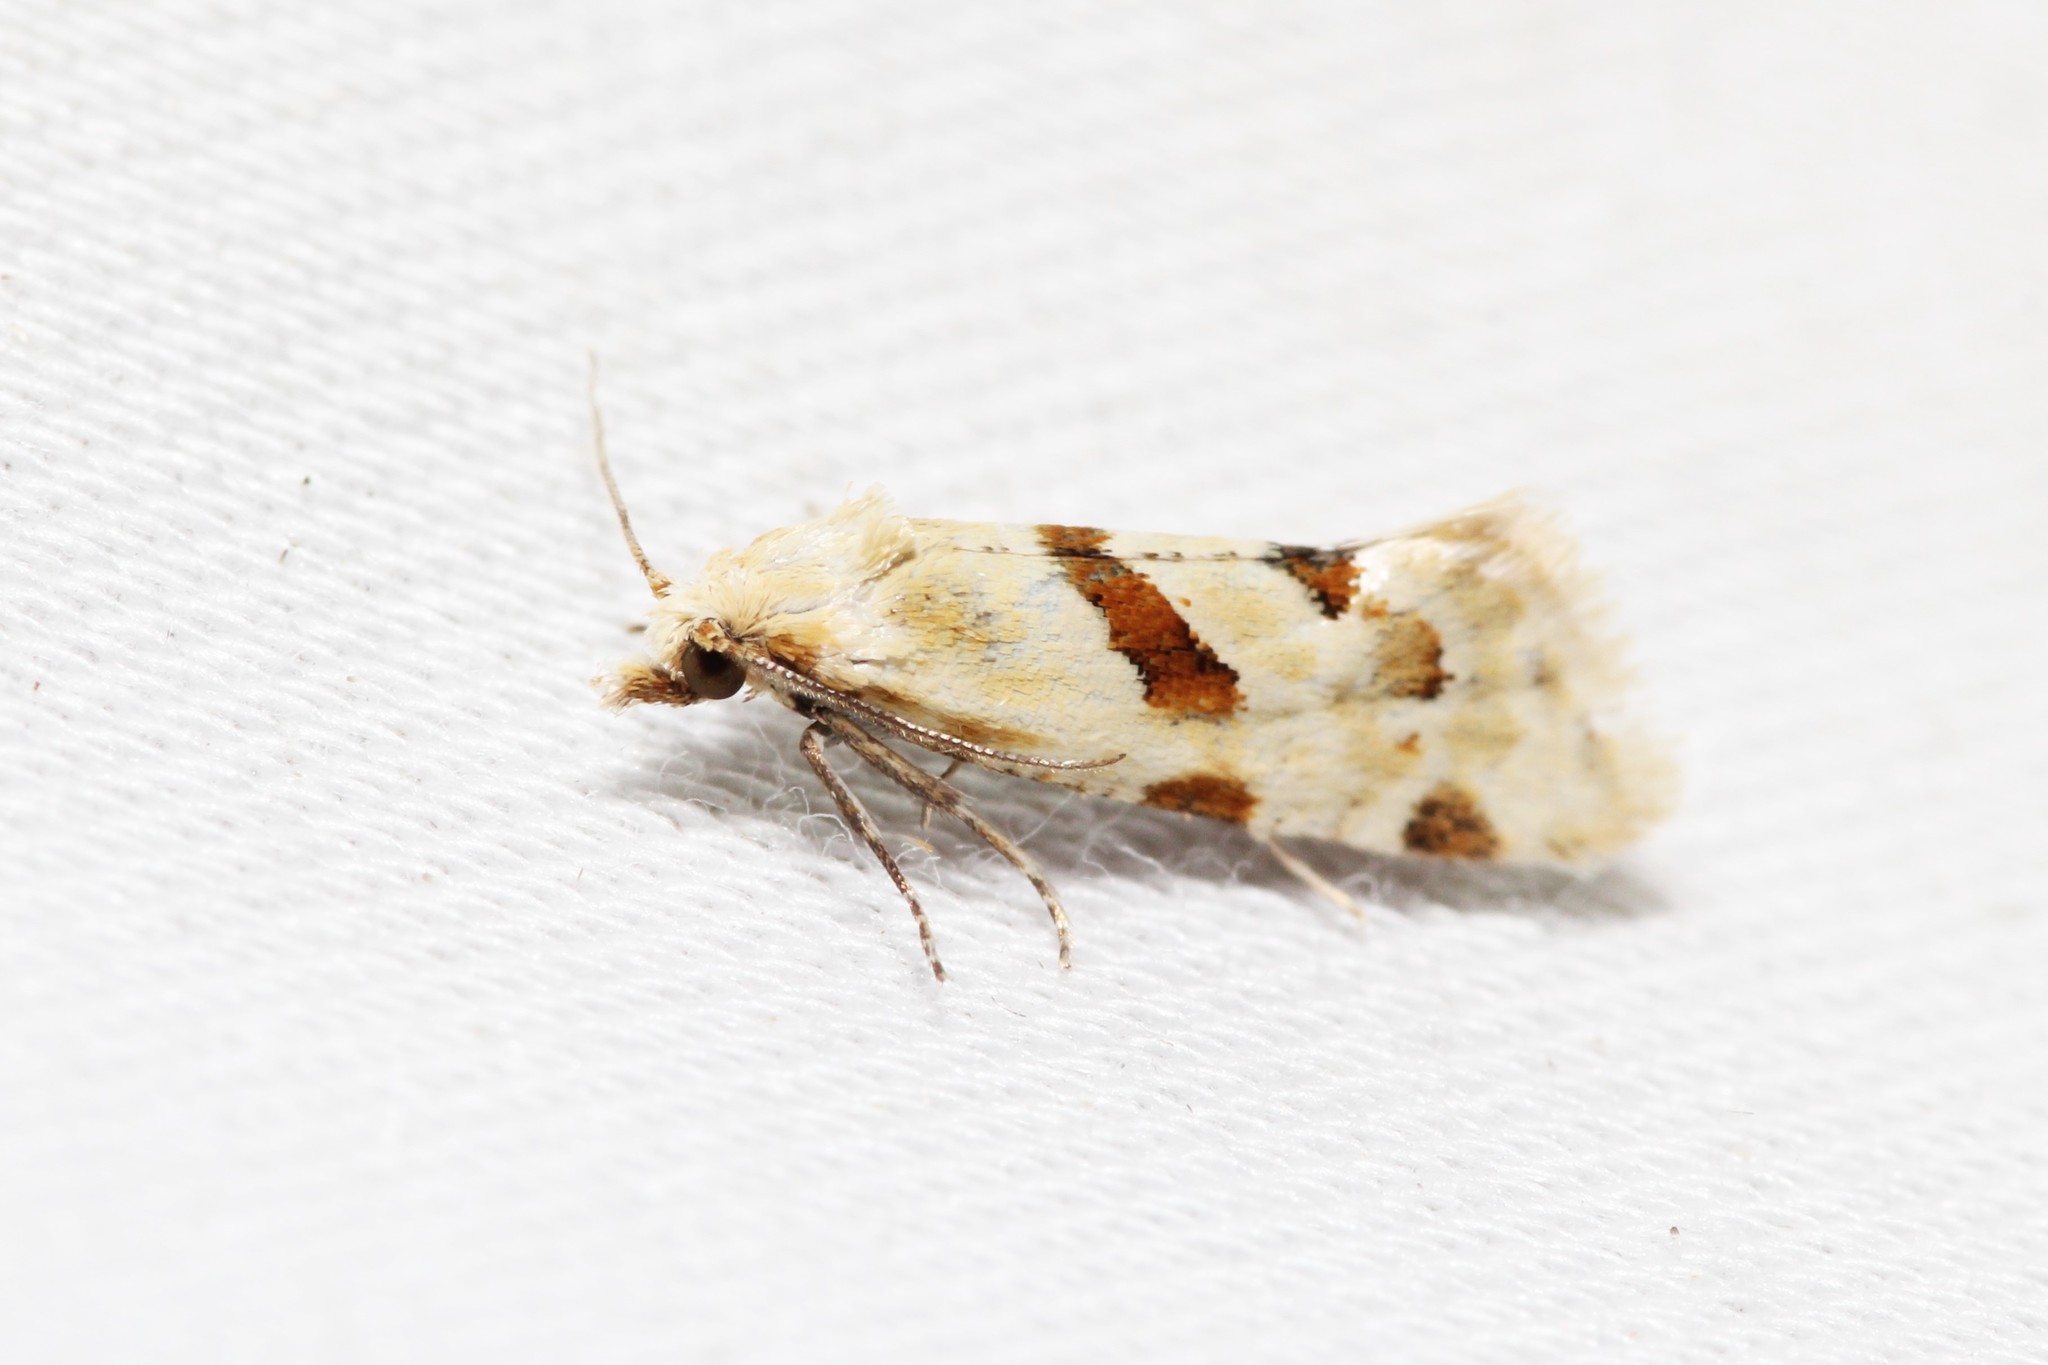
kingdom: Animalia
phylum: Arthropoda
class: Insecta
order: Lepidoptera
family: Tortricidae
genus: Aethes
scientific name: Aethes smeathmanniana
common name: Yarrow conch
